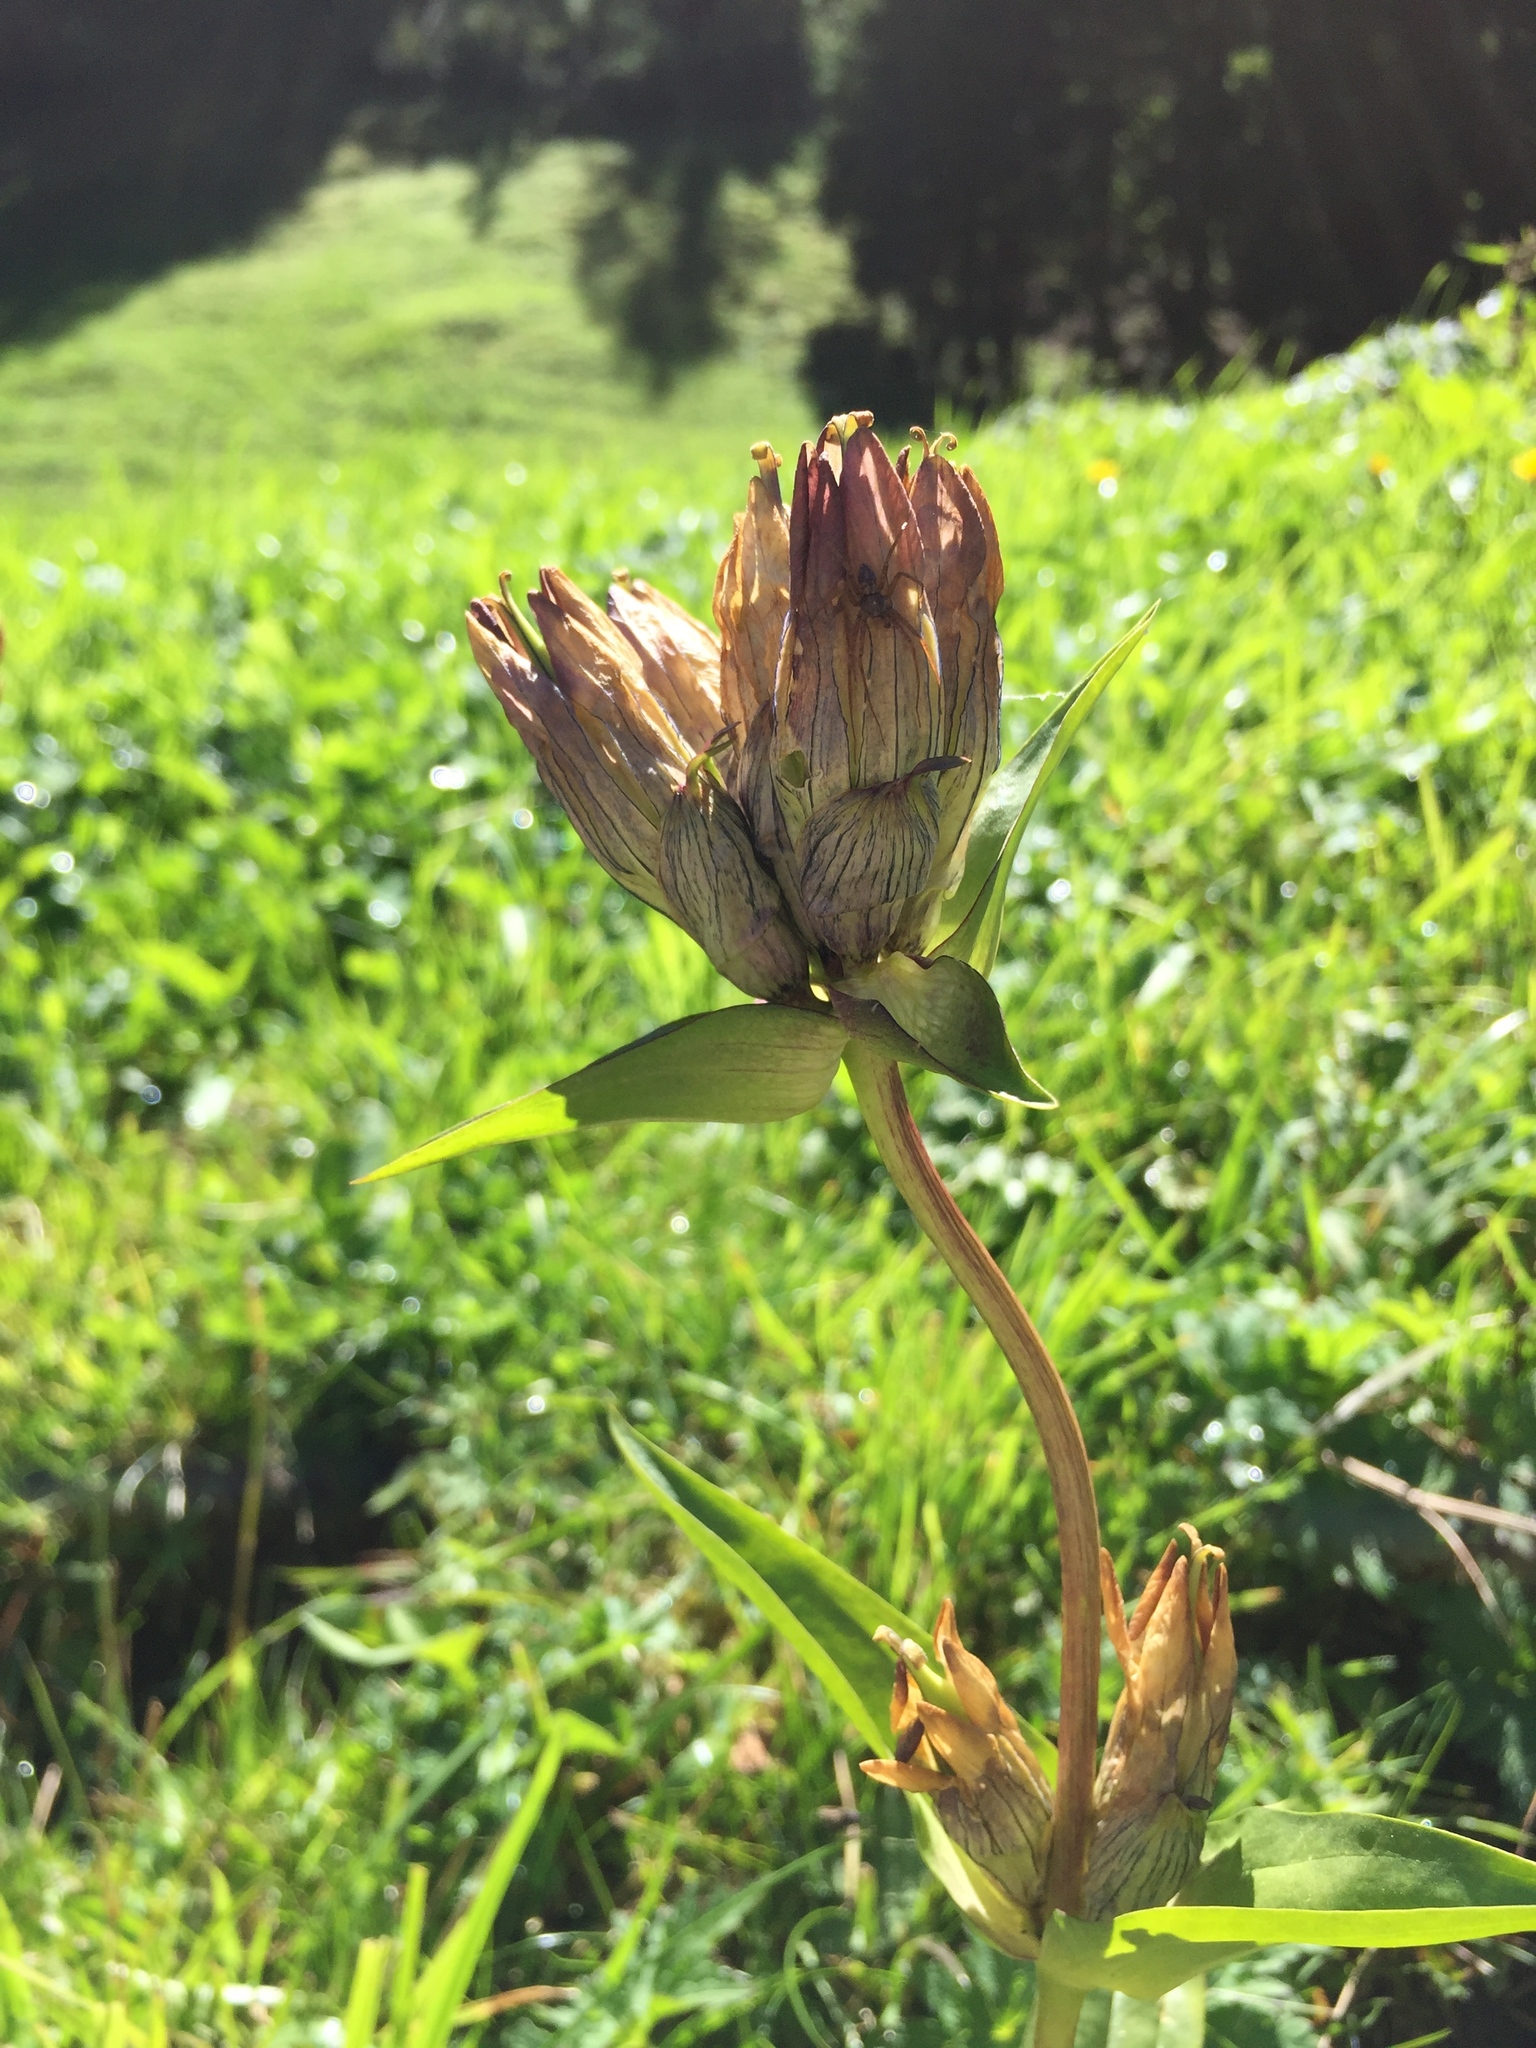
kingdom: Plantae
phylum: Tracheophyta
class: Magnoliopsida
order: Gentianales
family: Gentianaceae
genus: Gentiana
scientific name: Gentiana purpurea
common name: Purple gentian
